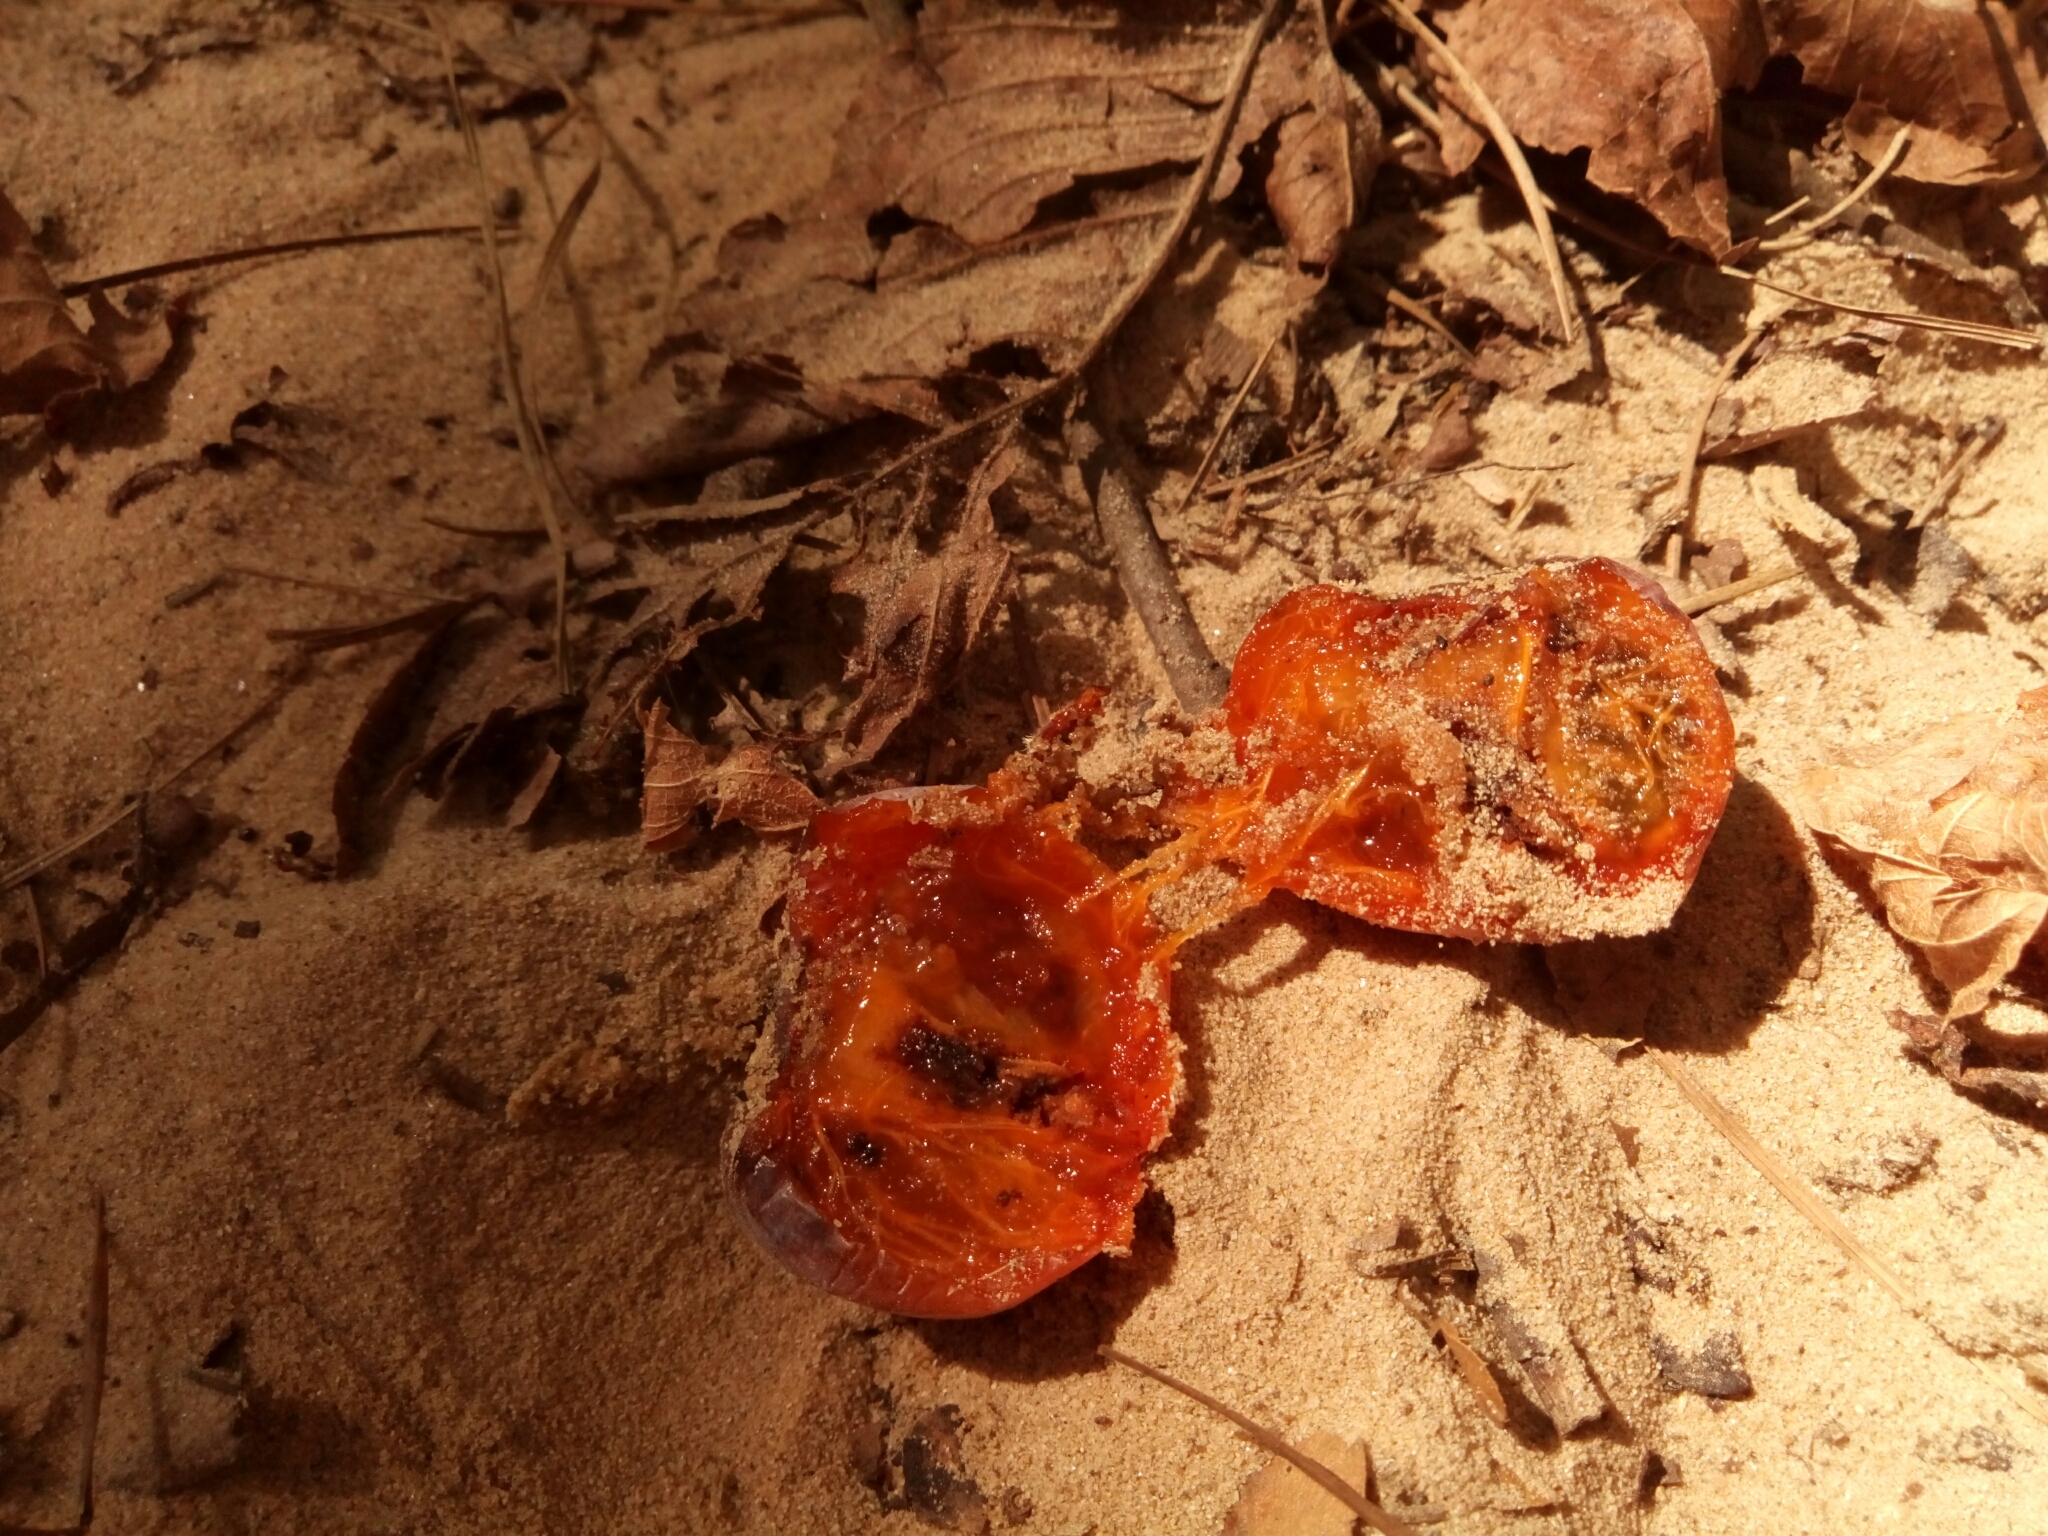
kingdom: Plantae
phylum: Tracheophyta
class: Magnoliopsida
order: Ericales
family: Ebenaceae
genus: Diospyros
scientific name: Diospyros virginiana
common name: Persimmon
